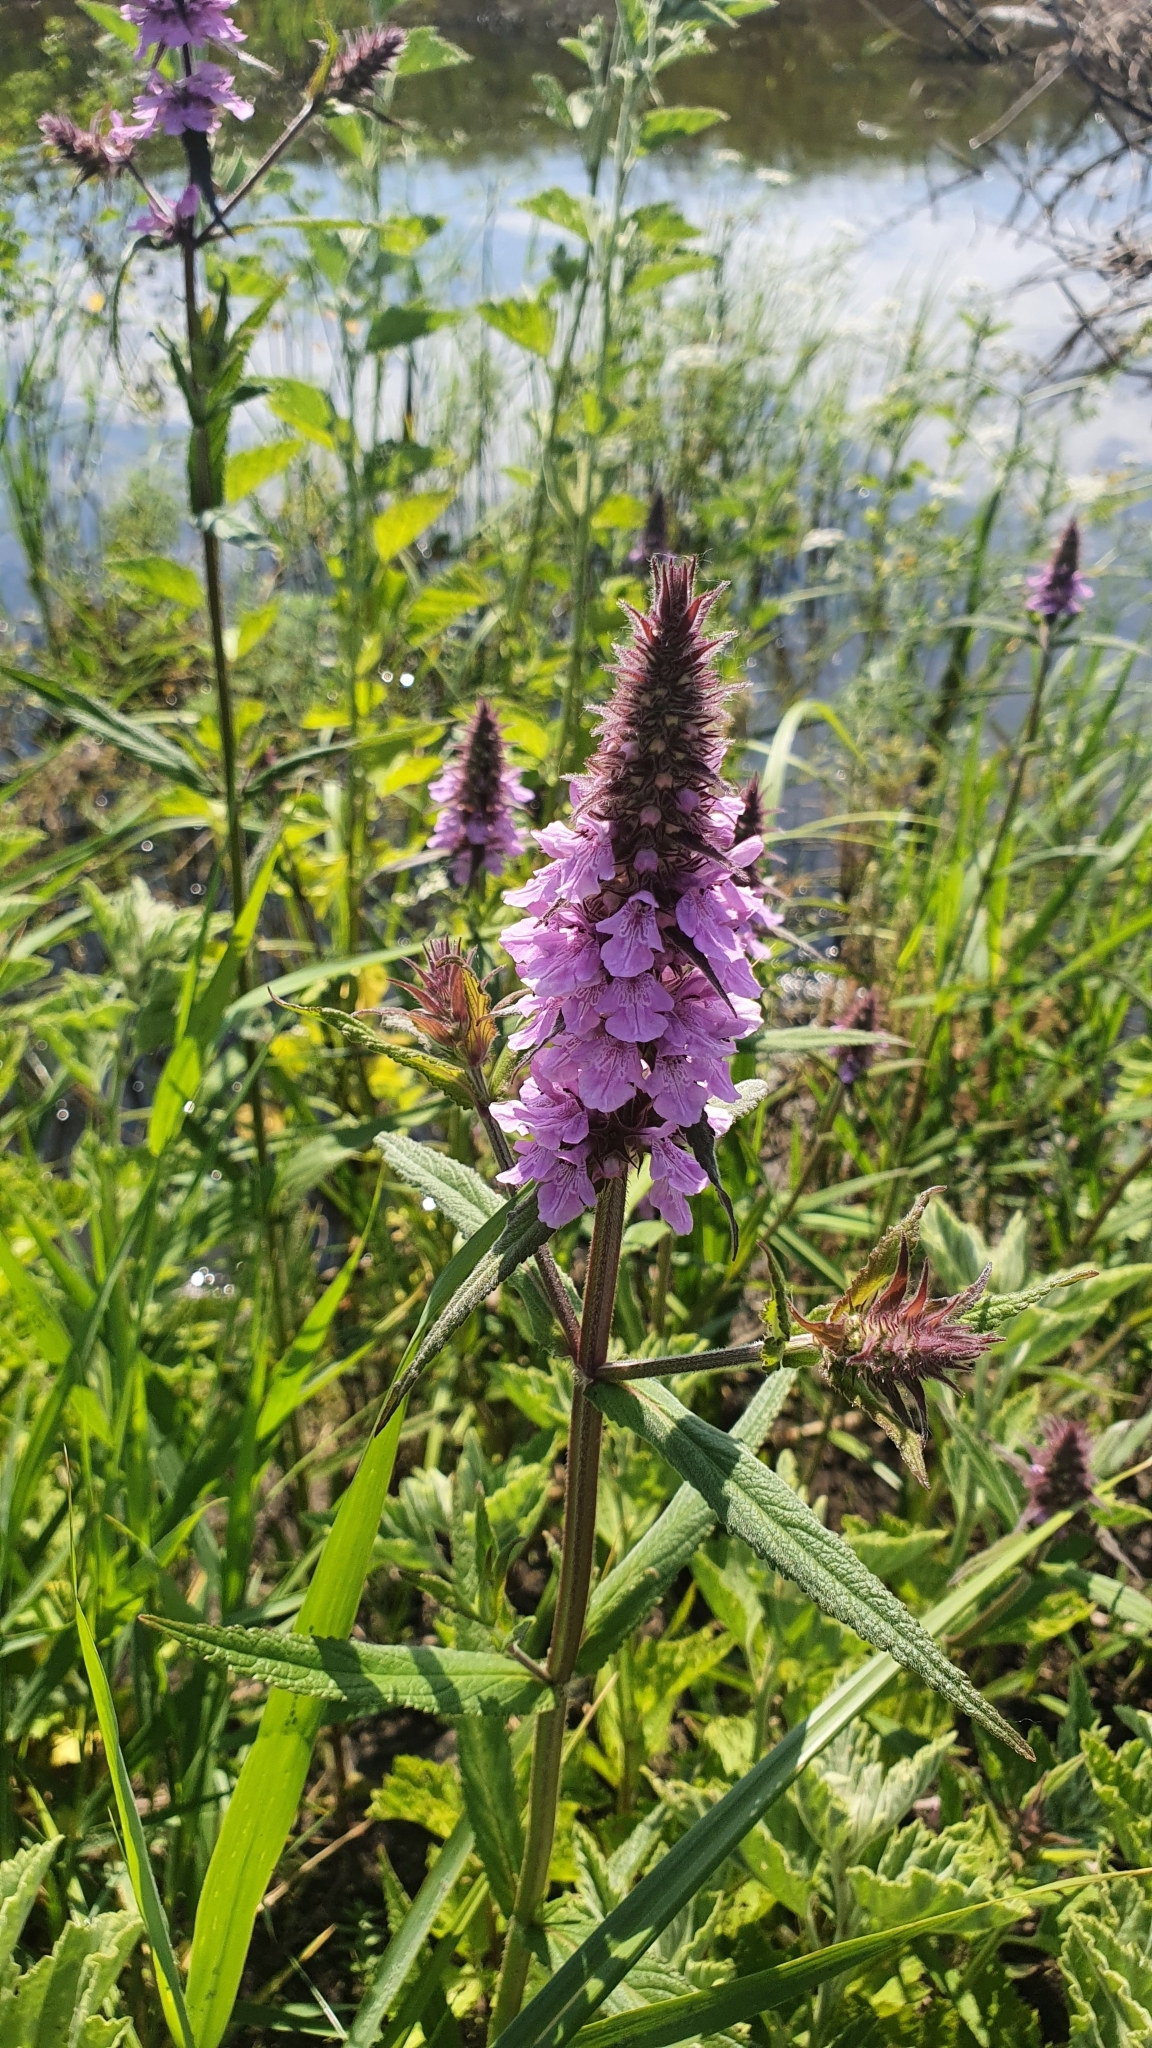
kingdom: Plantae
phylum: Tracheophyta
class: Magnoliopsida
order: Lamiales
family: Lamiaceae
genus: Stachys
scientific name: Stachys palustris
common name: Marsh woundwort
